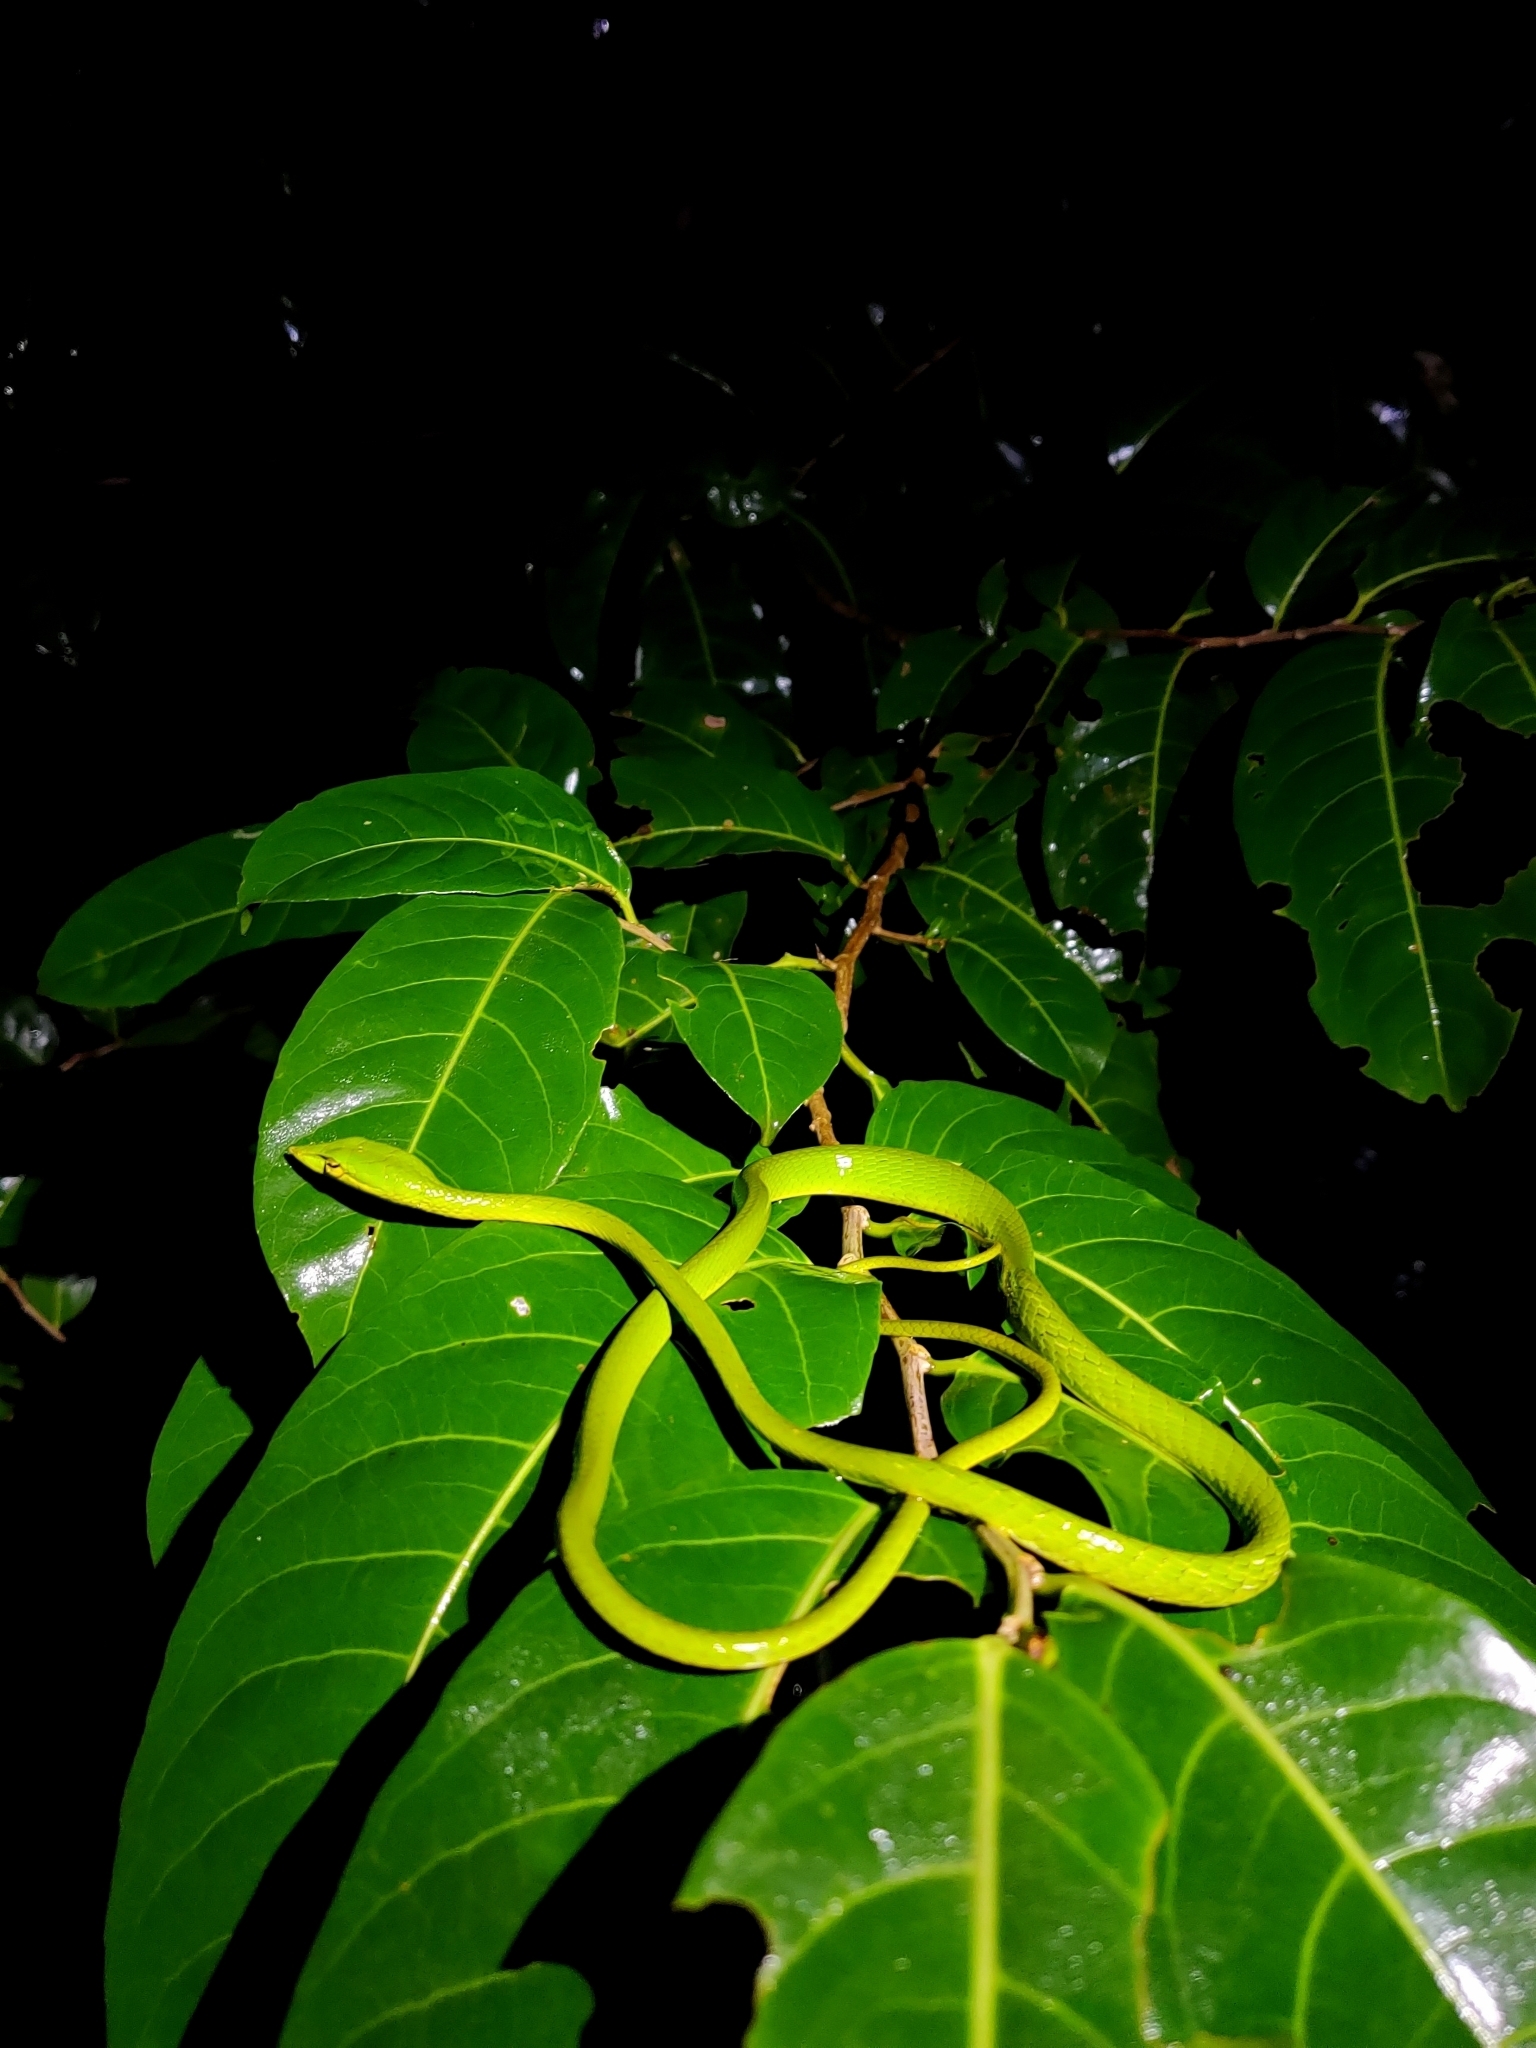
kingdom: Animalia
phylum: Chordata
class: Squamata
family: Colubridae
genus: Ahaetulla
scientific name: Ahaetulla borealis
